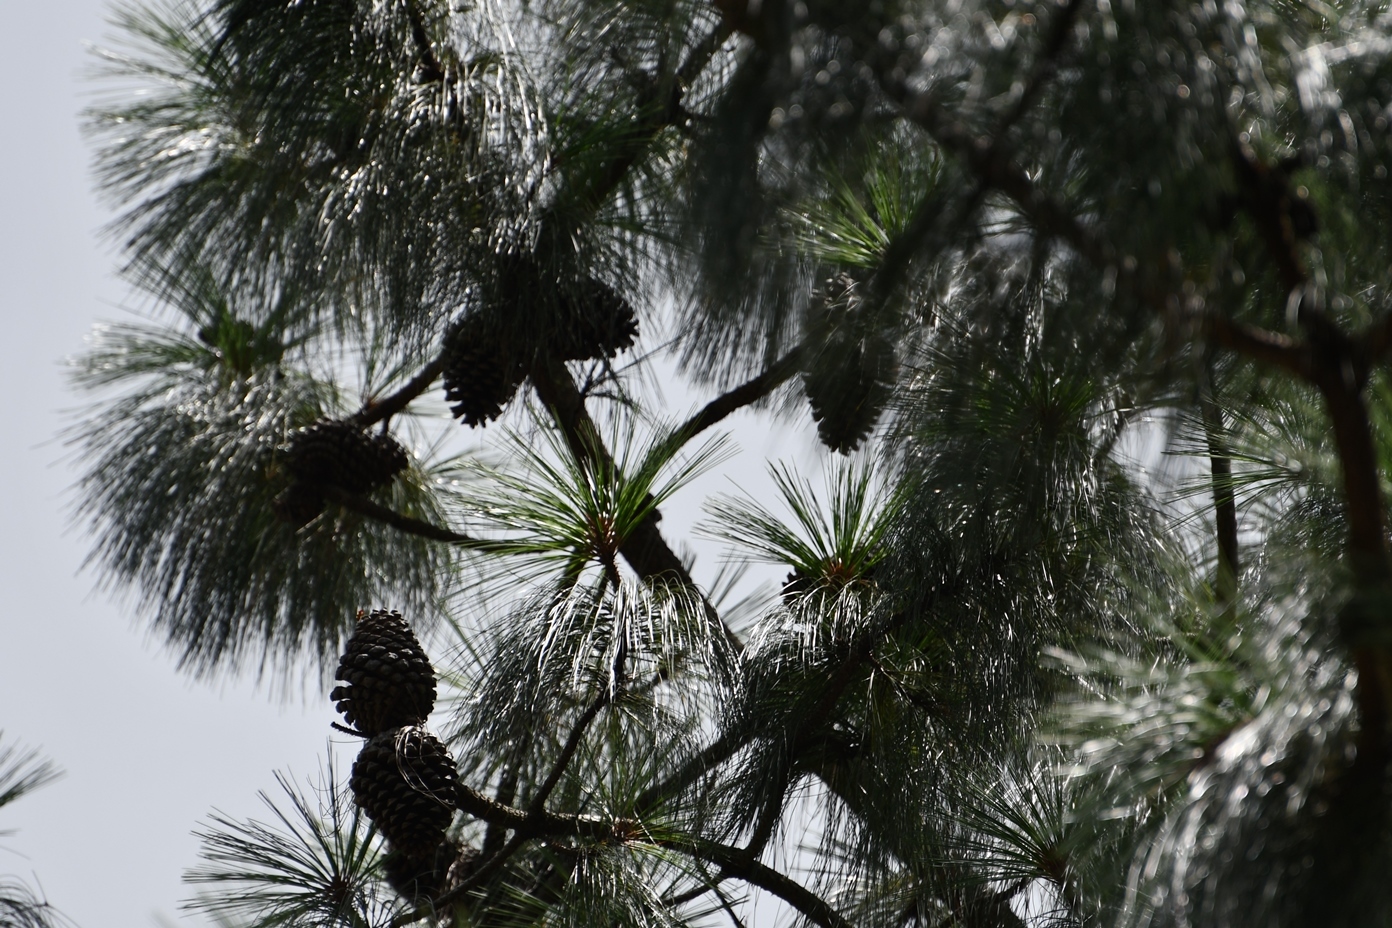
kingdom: Plantae
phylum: Tracheophyta
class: Pinopsida
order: Pinales
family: Pinaceae
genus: Pinus
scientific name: Pinus pseudostrobus
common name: False weymouth pine
